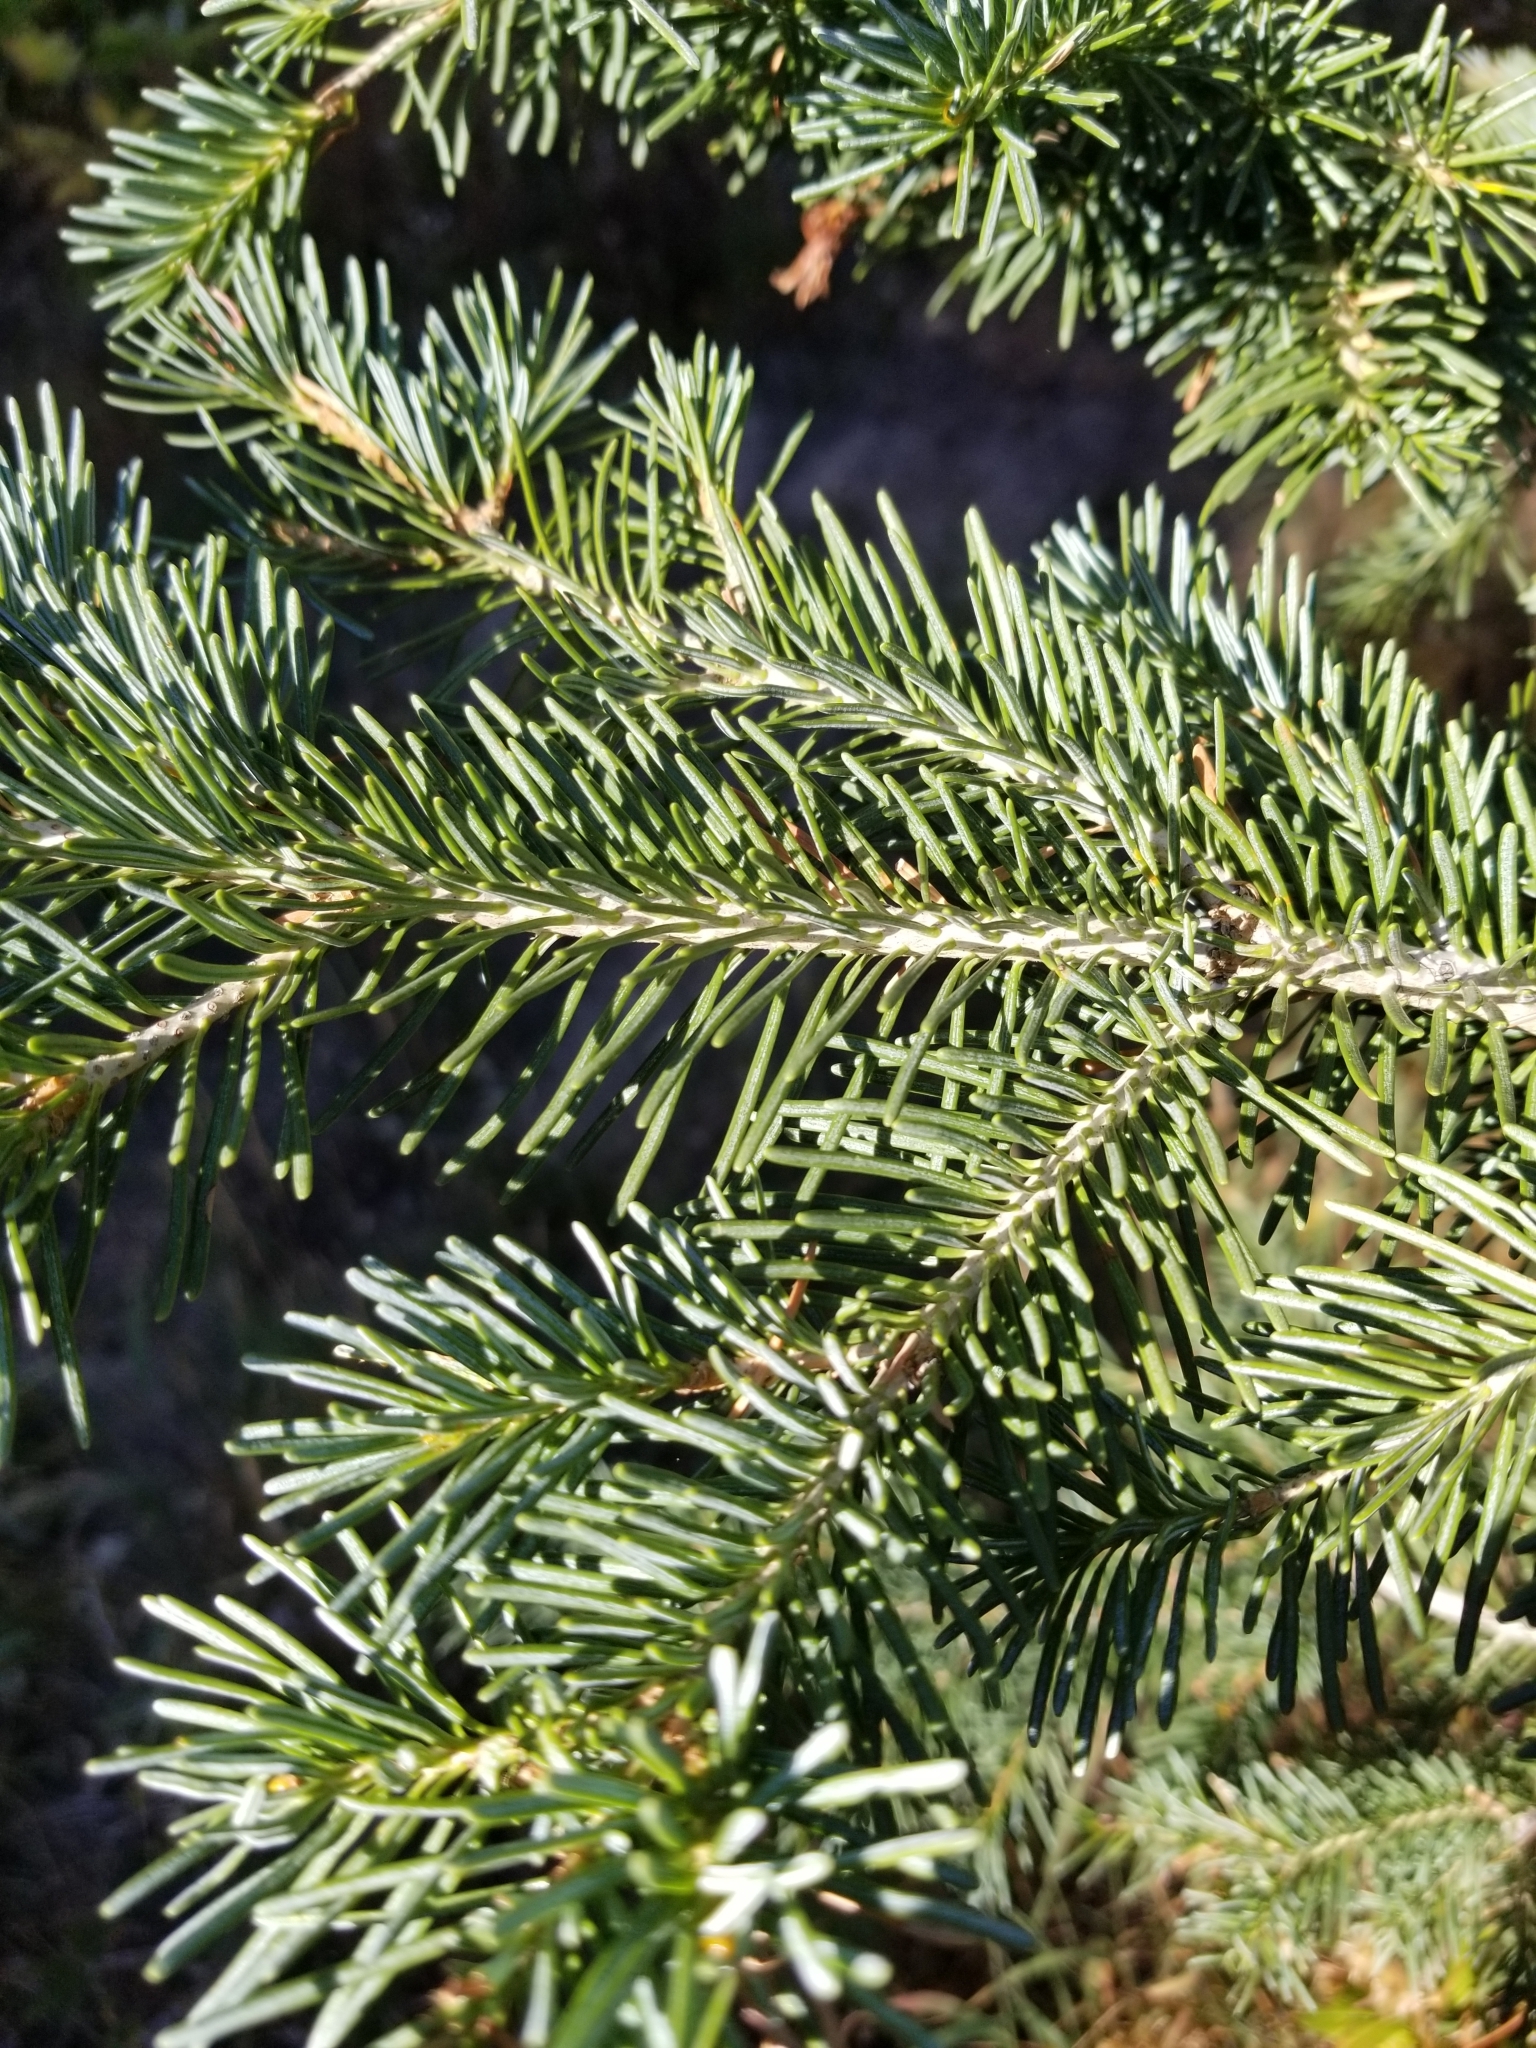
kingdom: Plantae
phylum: Tracheophyta
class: Pinopsida
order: Pinales
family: Pinaceae
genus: Abies
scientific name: Abies lasiocarpa
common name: Subalpine fir
